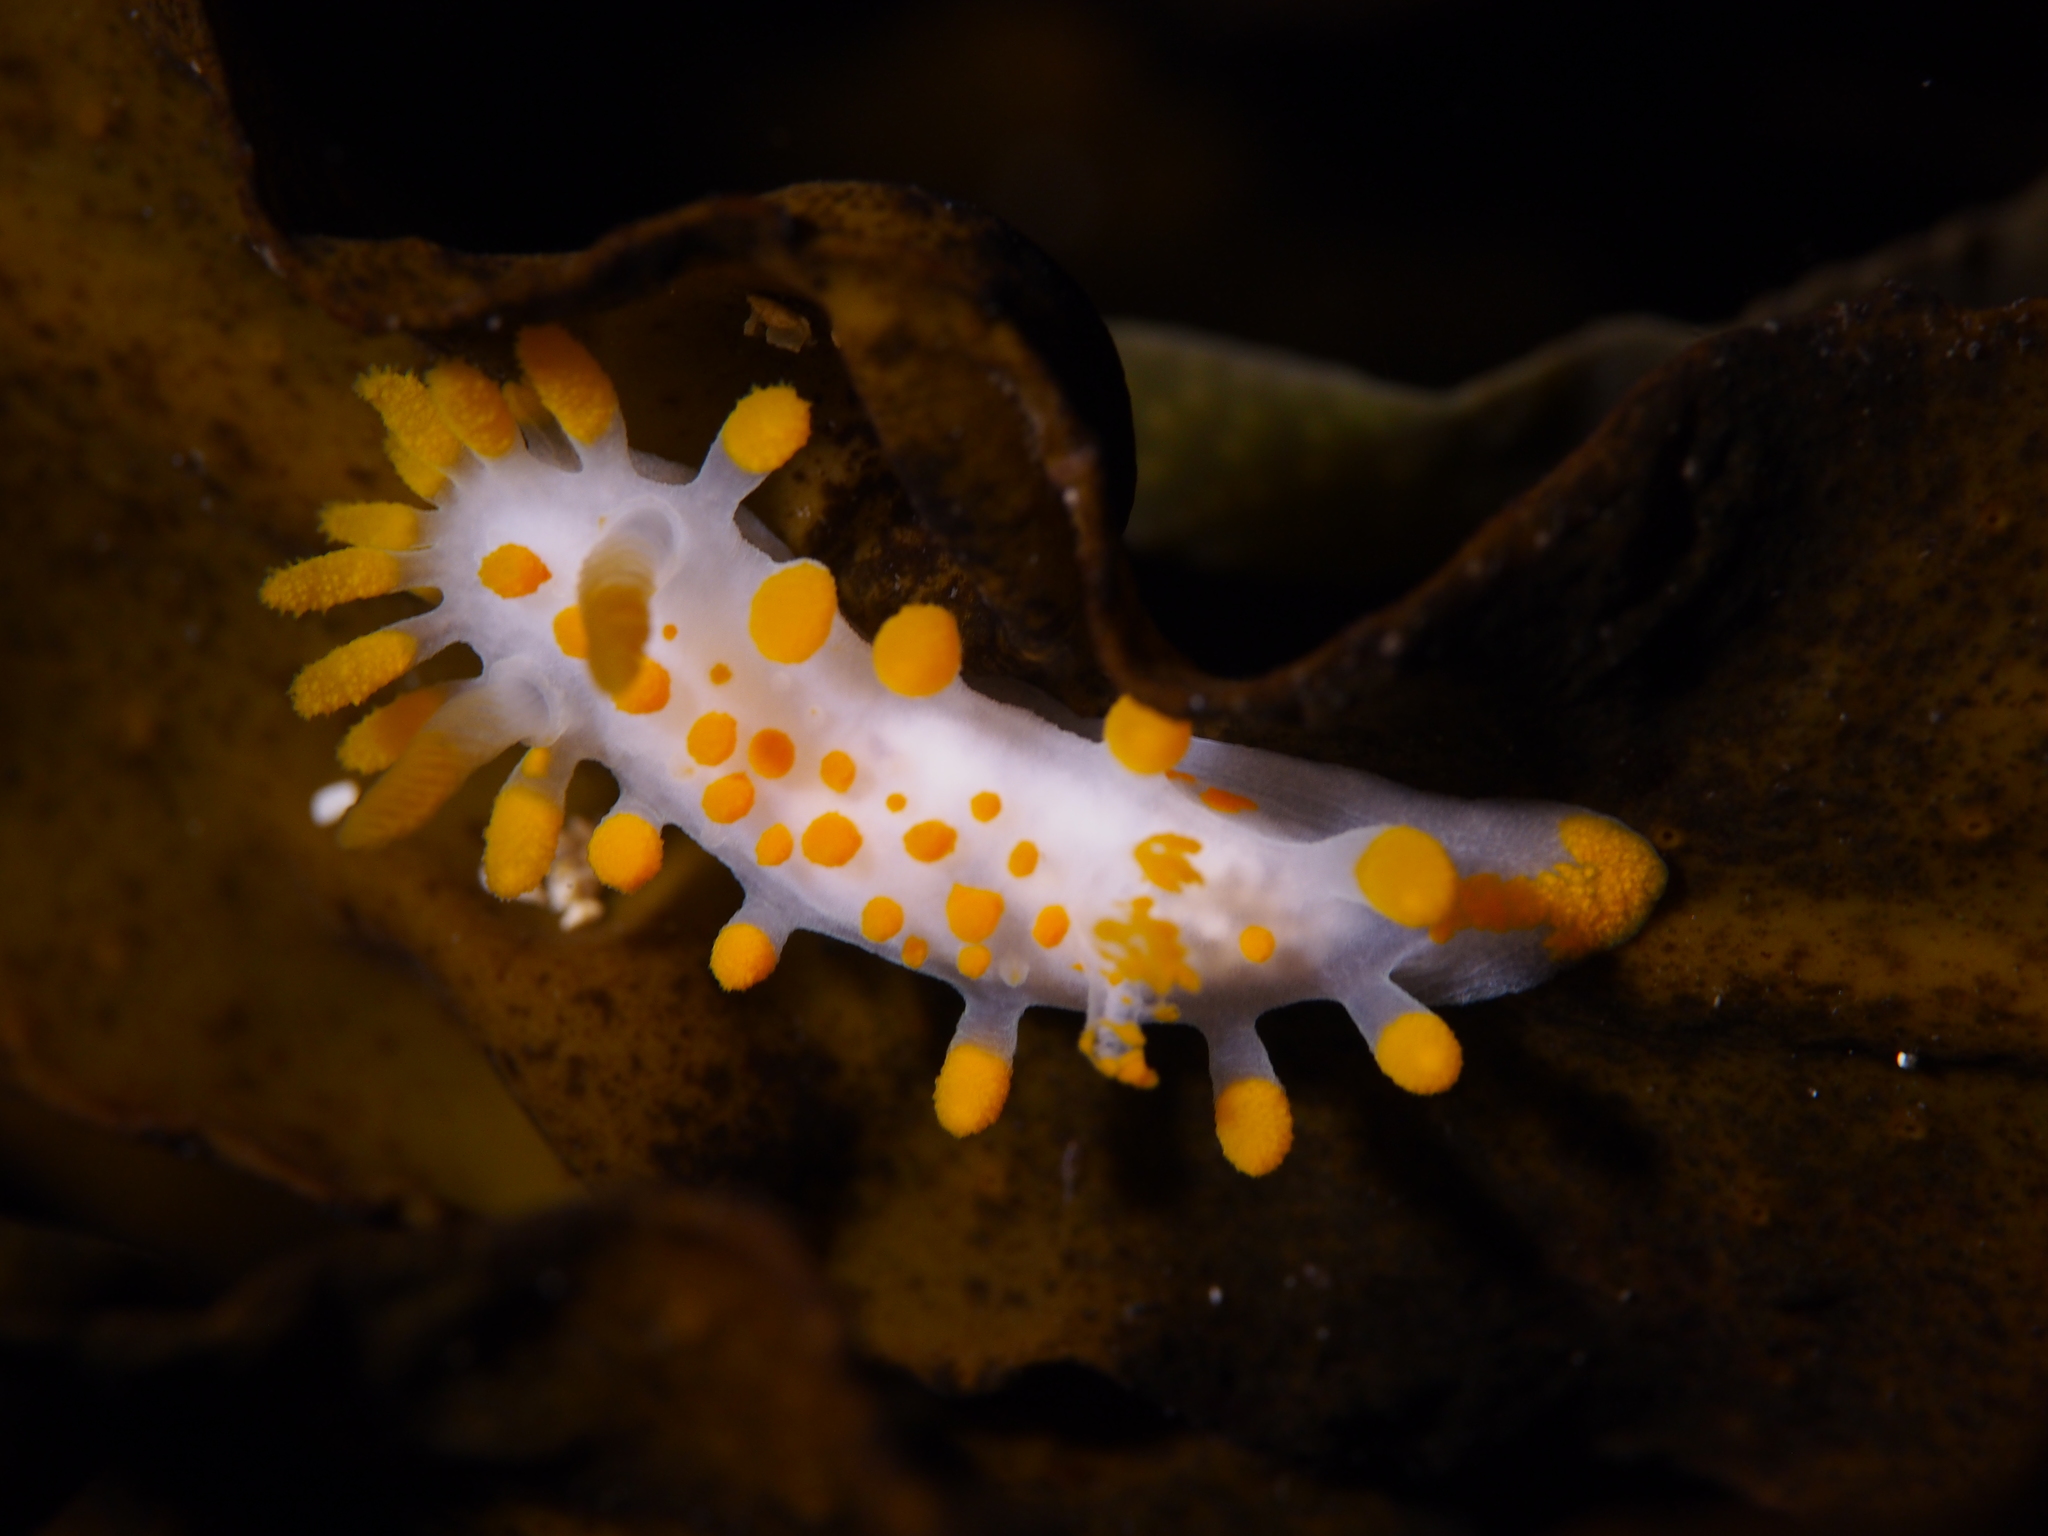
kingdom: Animalia
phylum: Mollusca
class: Gastropoda
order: Nudibranchia
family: Polyceridae
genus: Limacia
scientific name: Limacia clavigera
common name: Orange-clubbed sea slug
